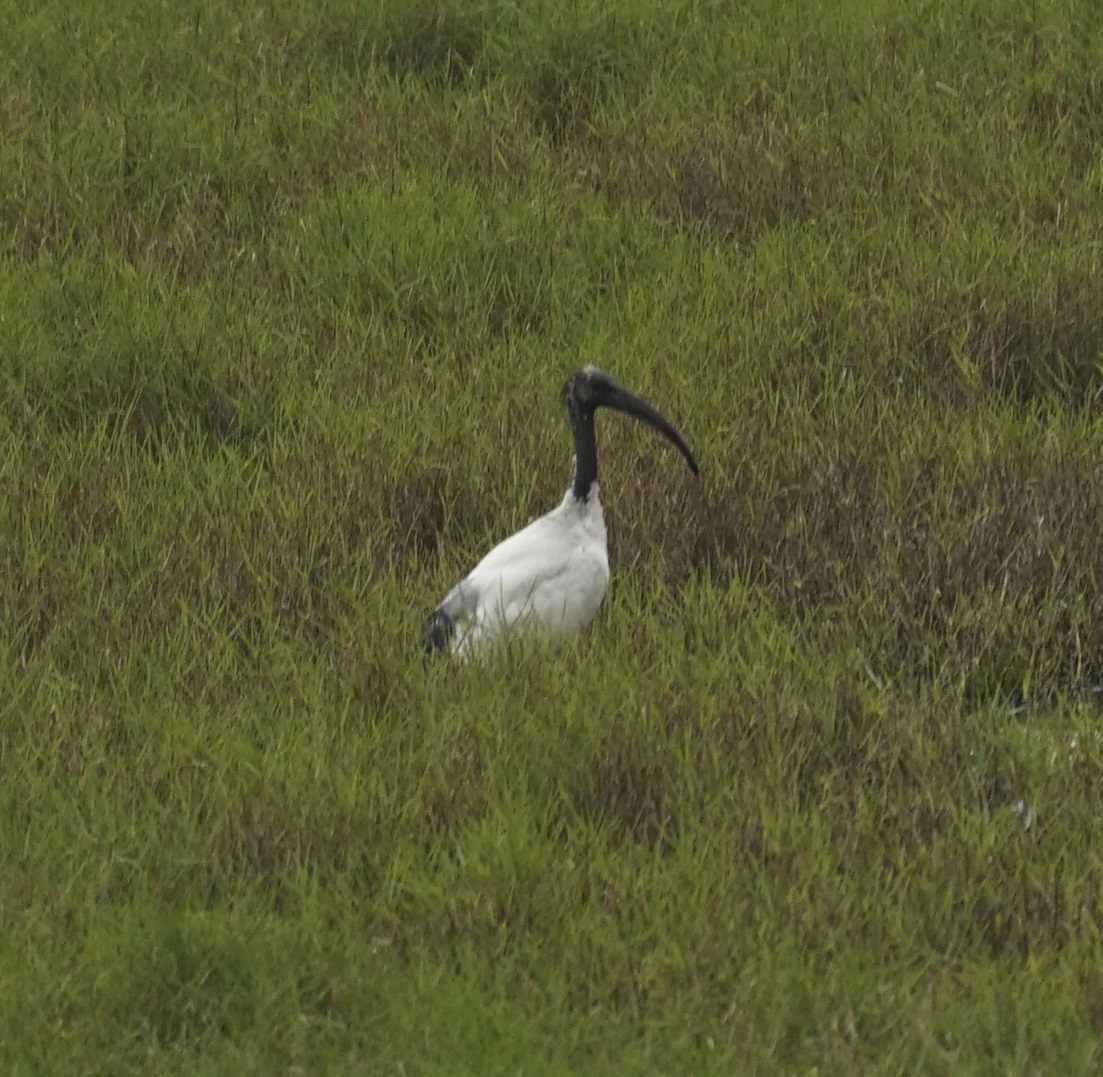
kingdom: Animalia
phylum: Chordata
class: Aves
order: Pelecaniformes
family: Threskiornithidae
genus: Threskiornis
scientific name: Threskiornis aethiopicus
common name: Sacred ibis
